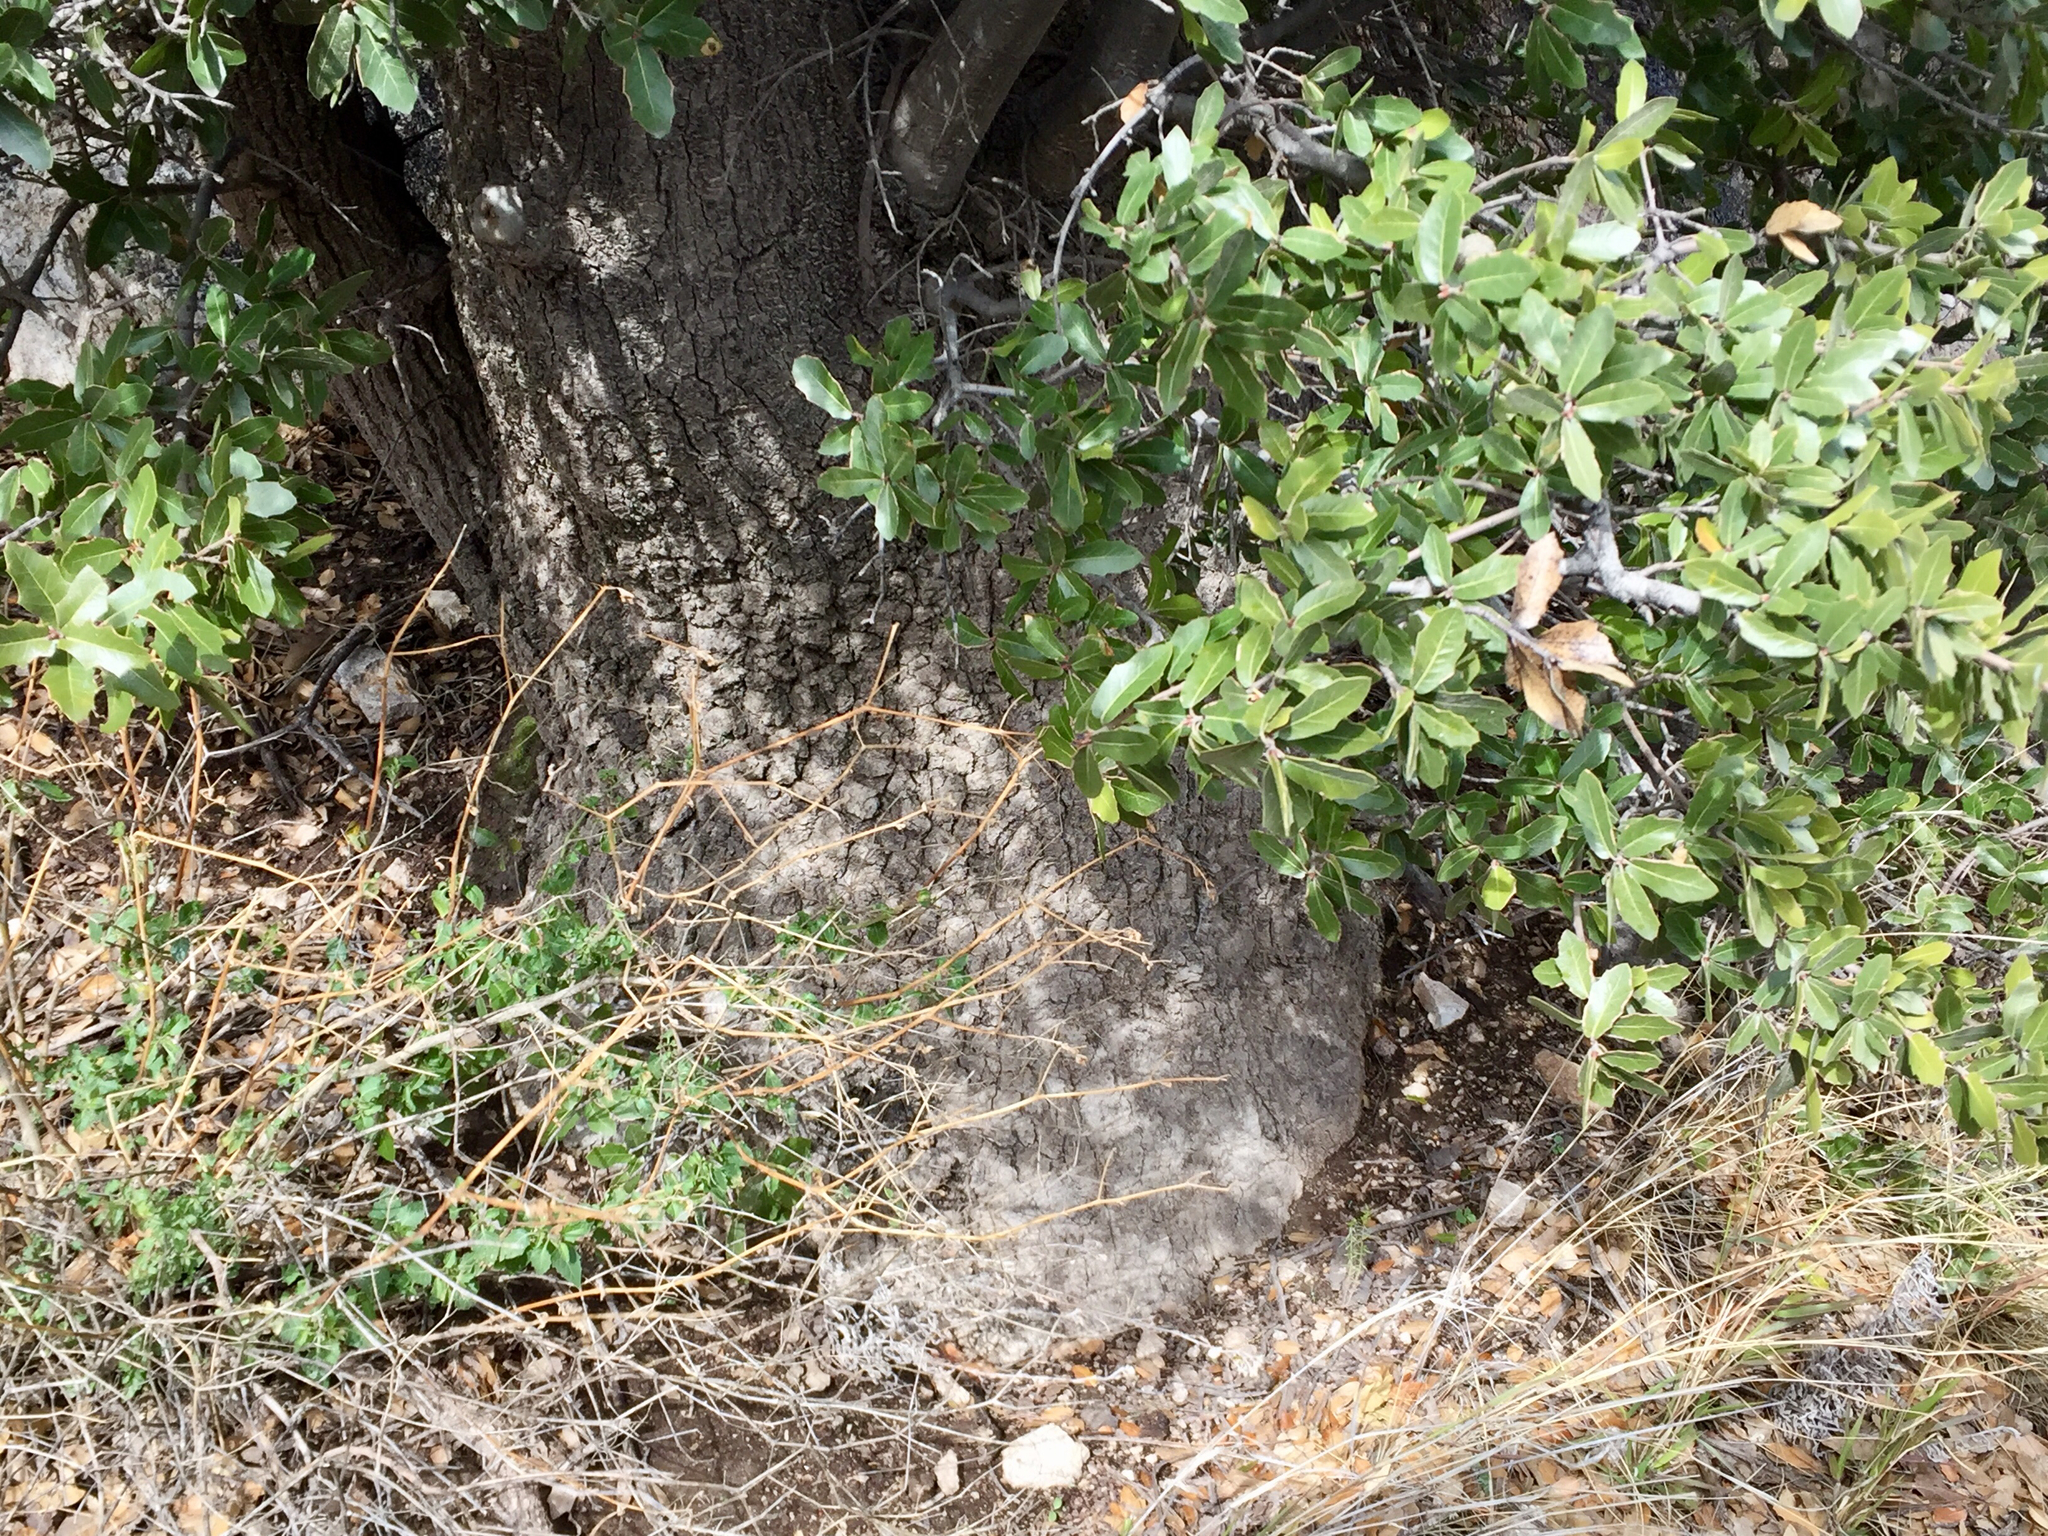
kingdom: Plantae
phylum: Tracheophyta
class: Magnoliopsida
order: Fagales
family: Fagaceae
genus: Quercus
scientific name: Quercus emoryi
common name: Emory oak
